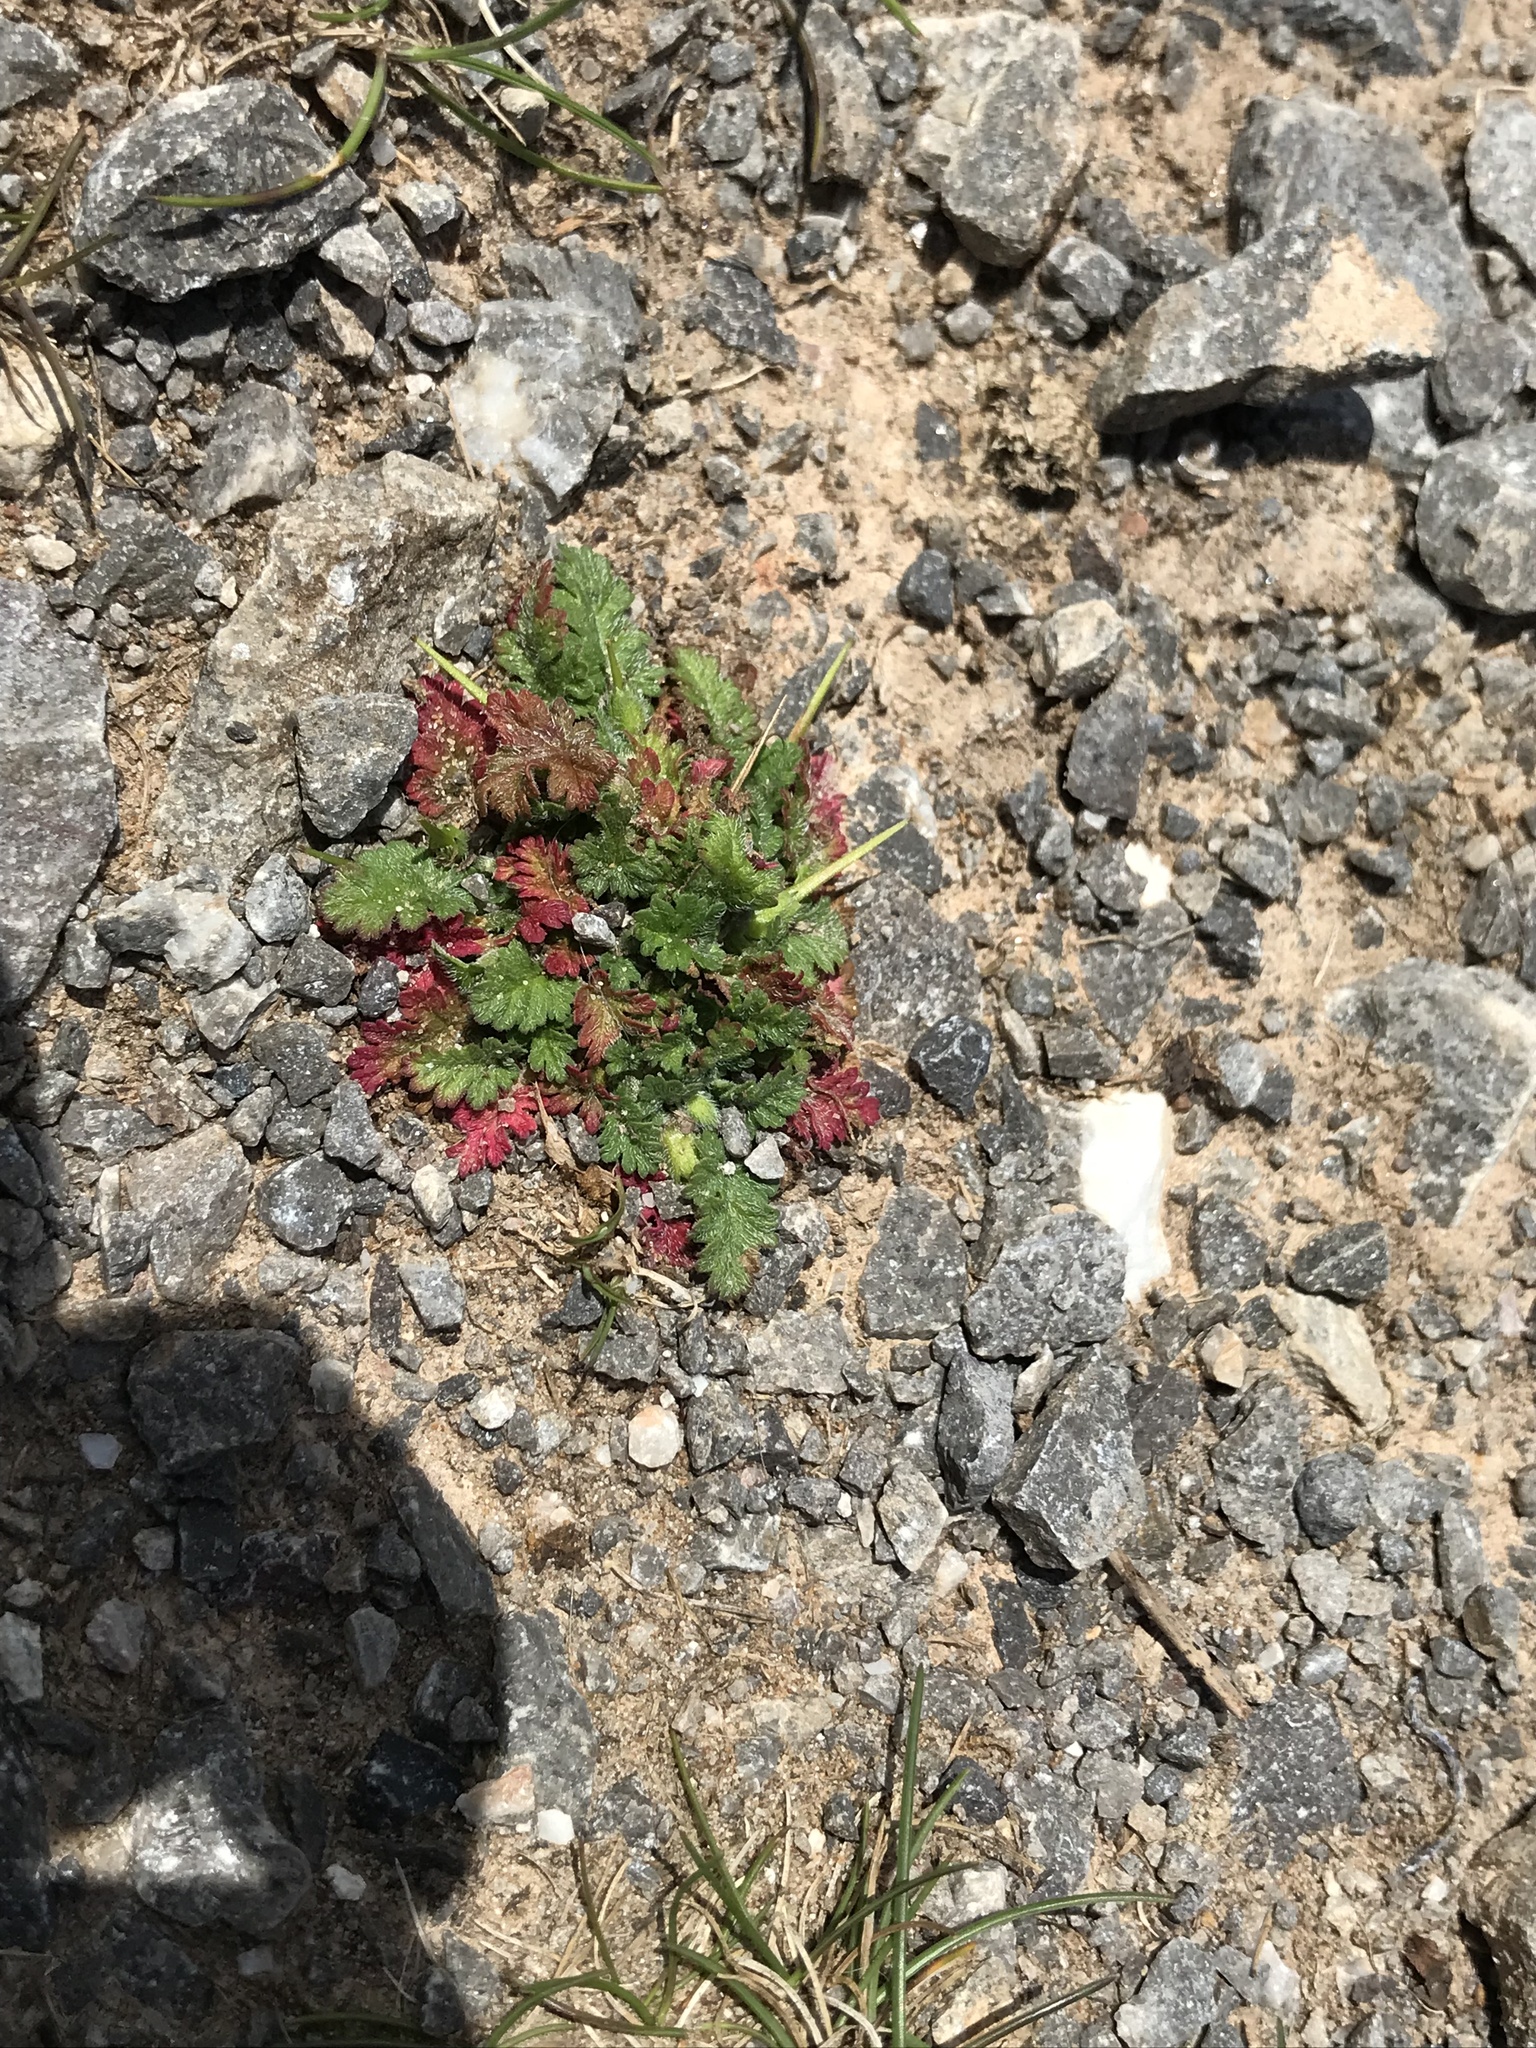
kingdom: Plantae
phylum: Tracheophyta
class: Magnoliopsida
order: Geraniales
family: Geraniaceae
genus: Erodium
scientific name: Erodium maritimum
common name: Sea stork's-bill
